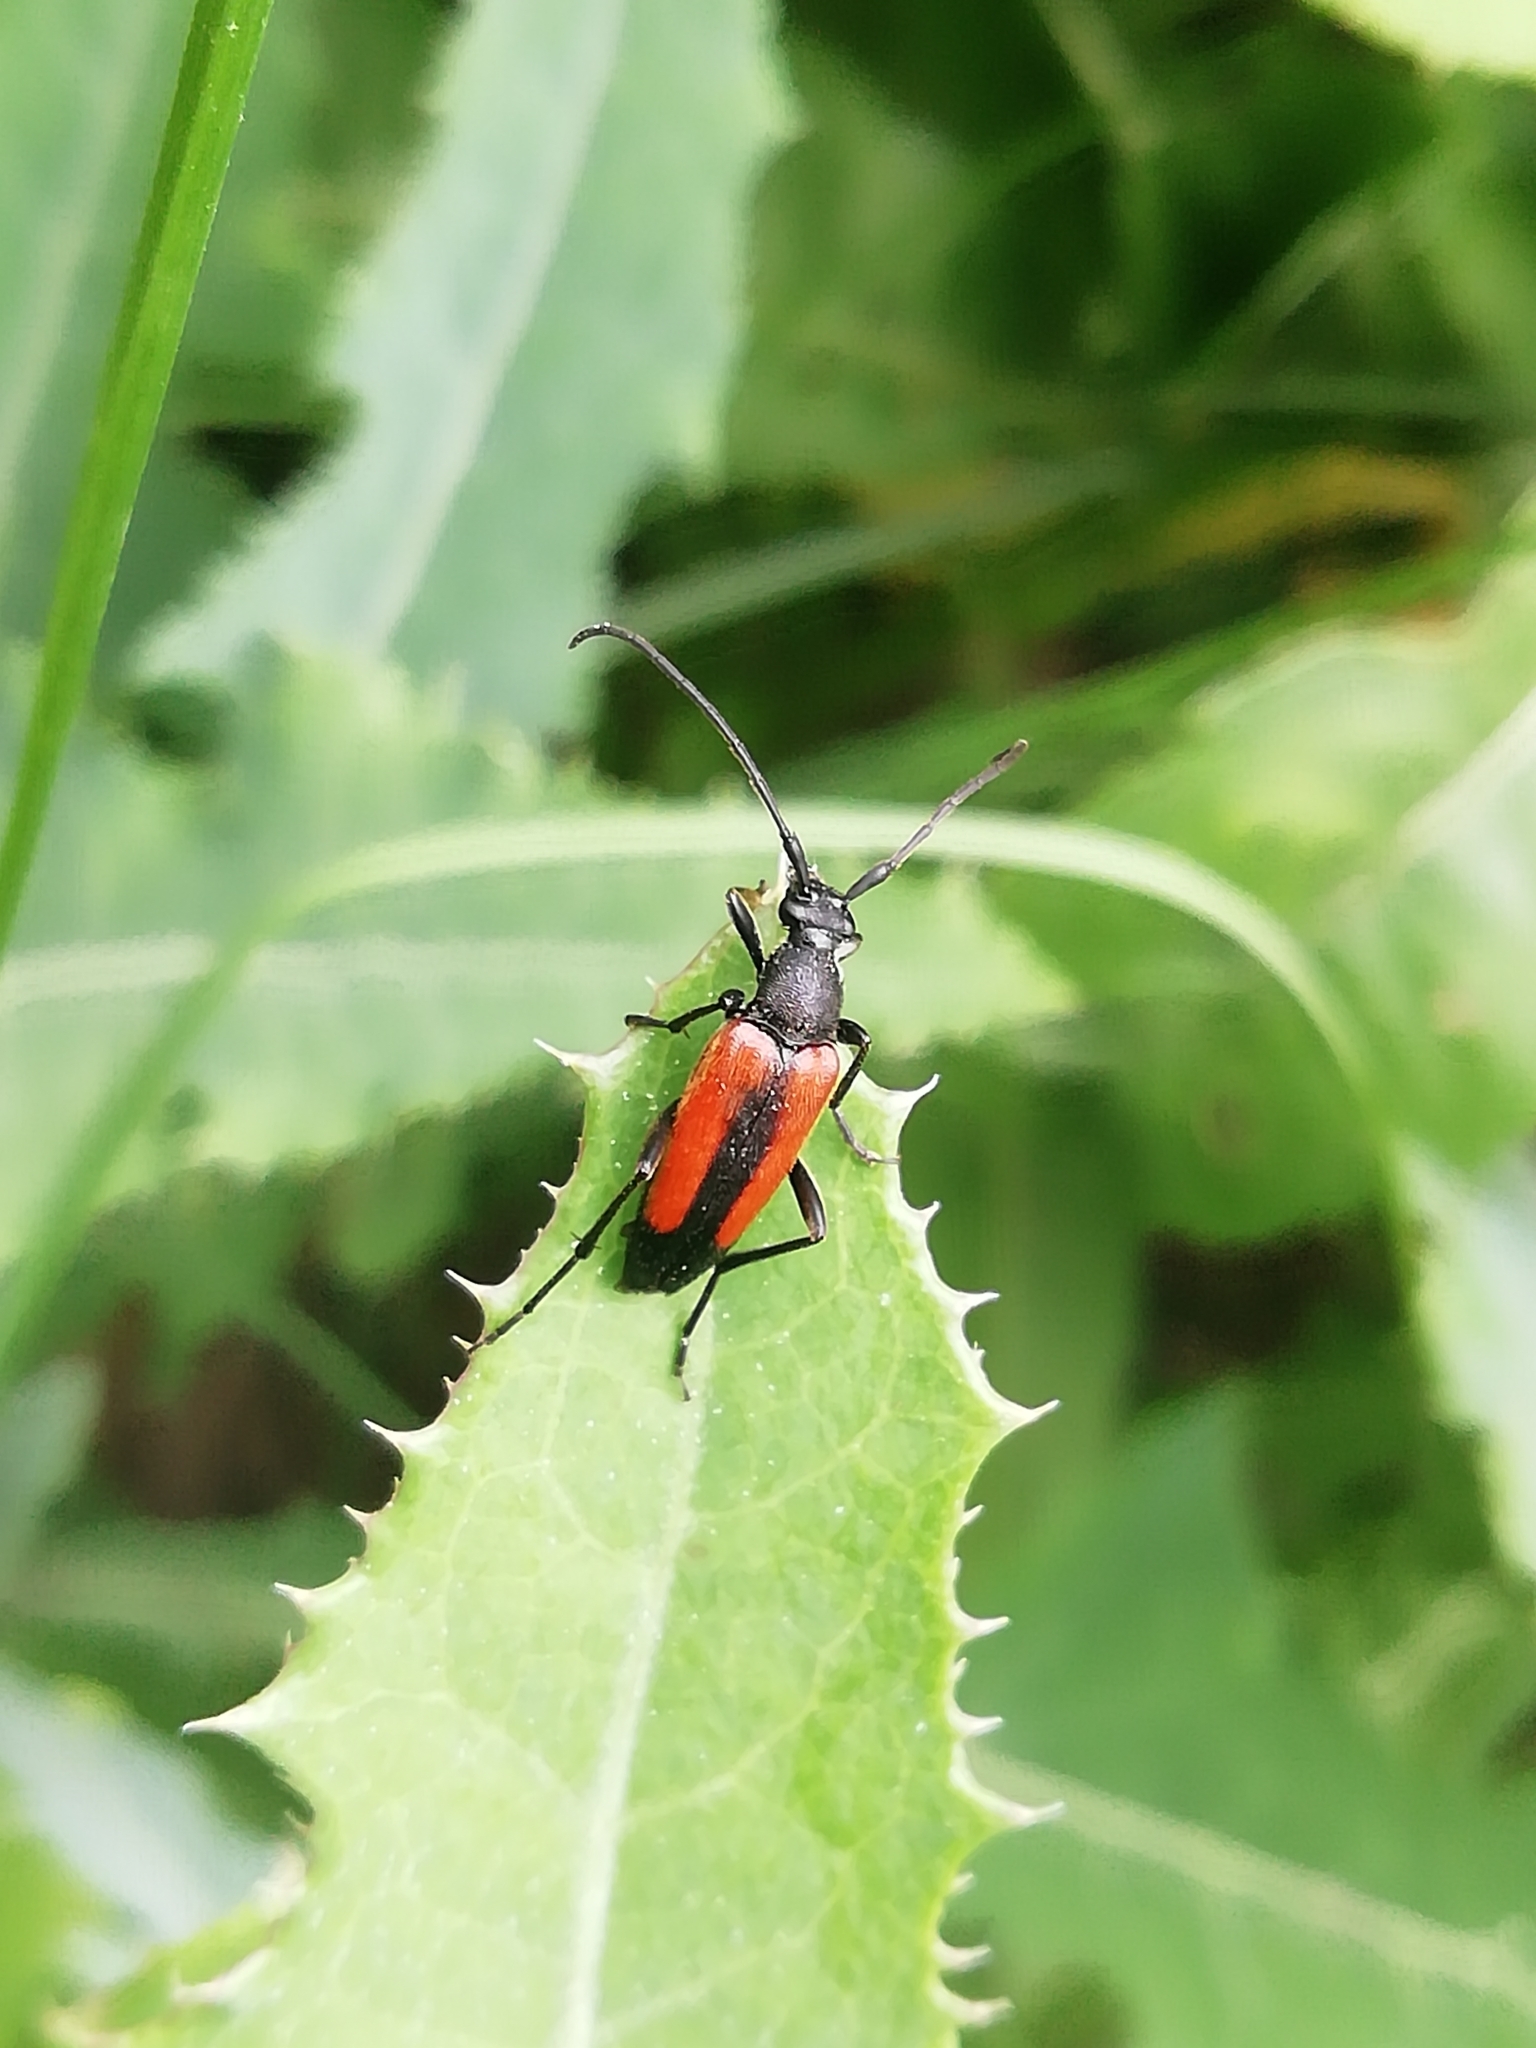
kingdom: Animalia
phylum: Arthropoda
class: Insecta
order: Coleoptera
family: Cerambycidae
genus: Stenurella
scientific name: Stenurella melanura
